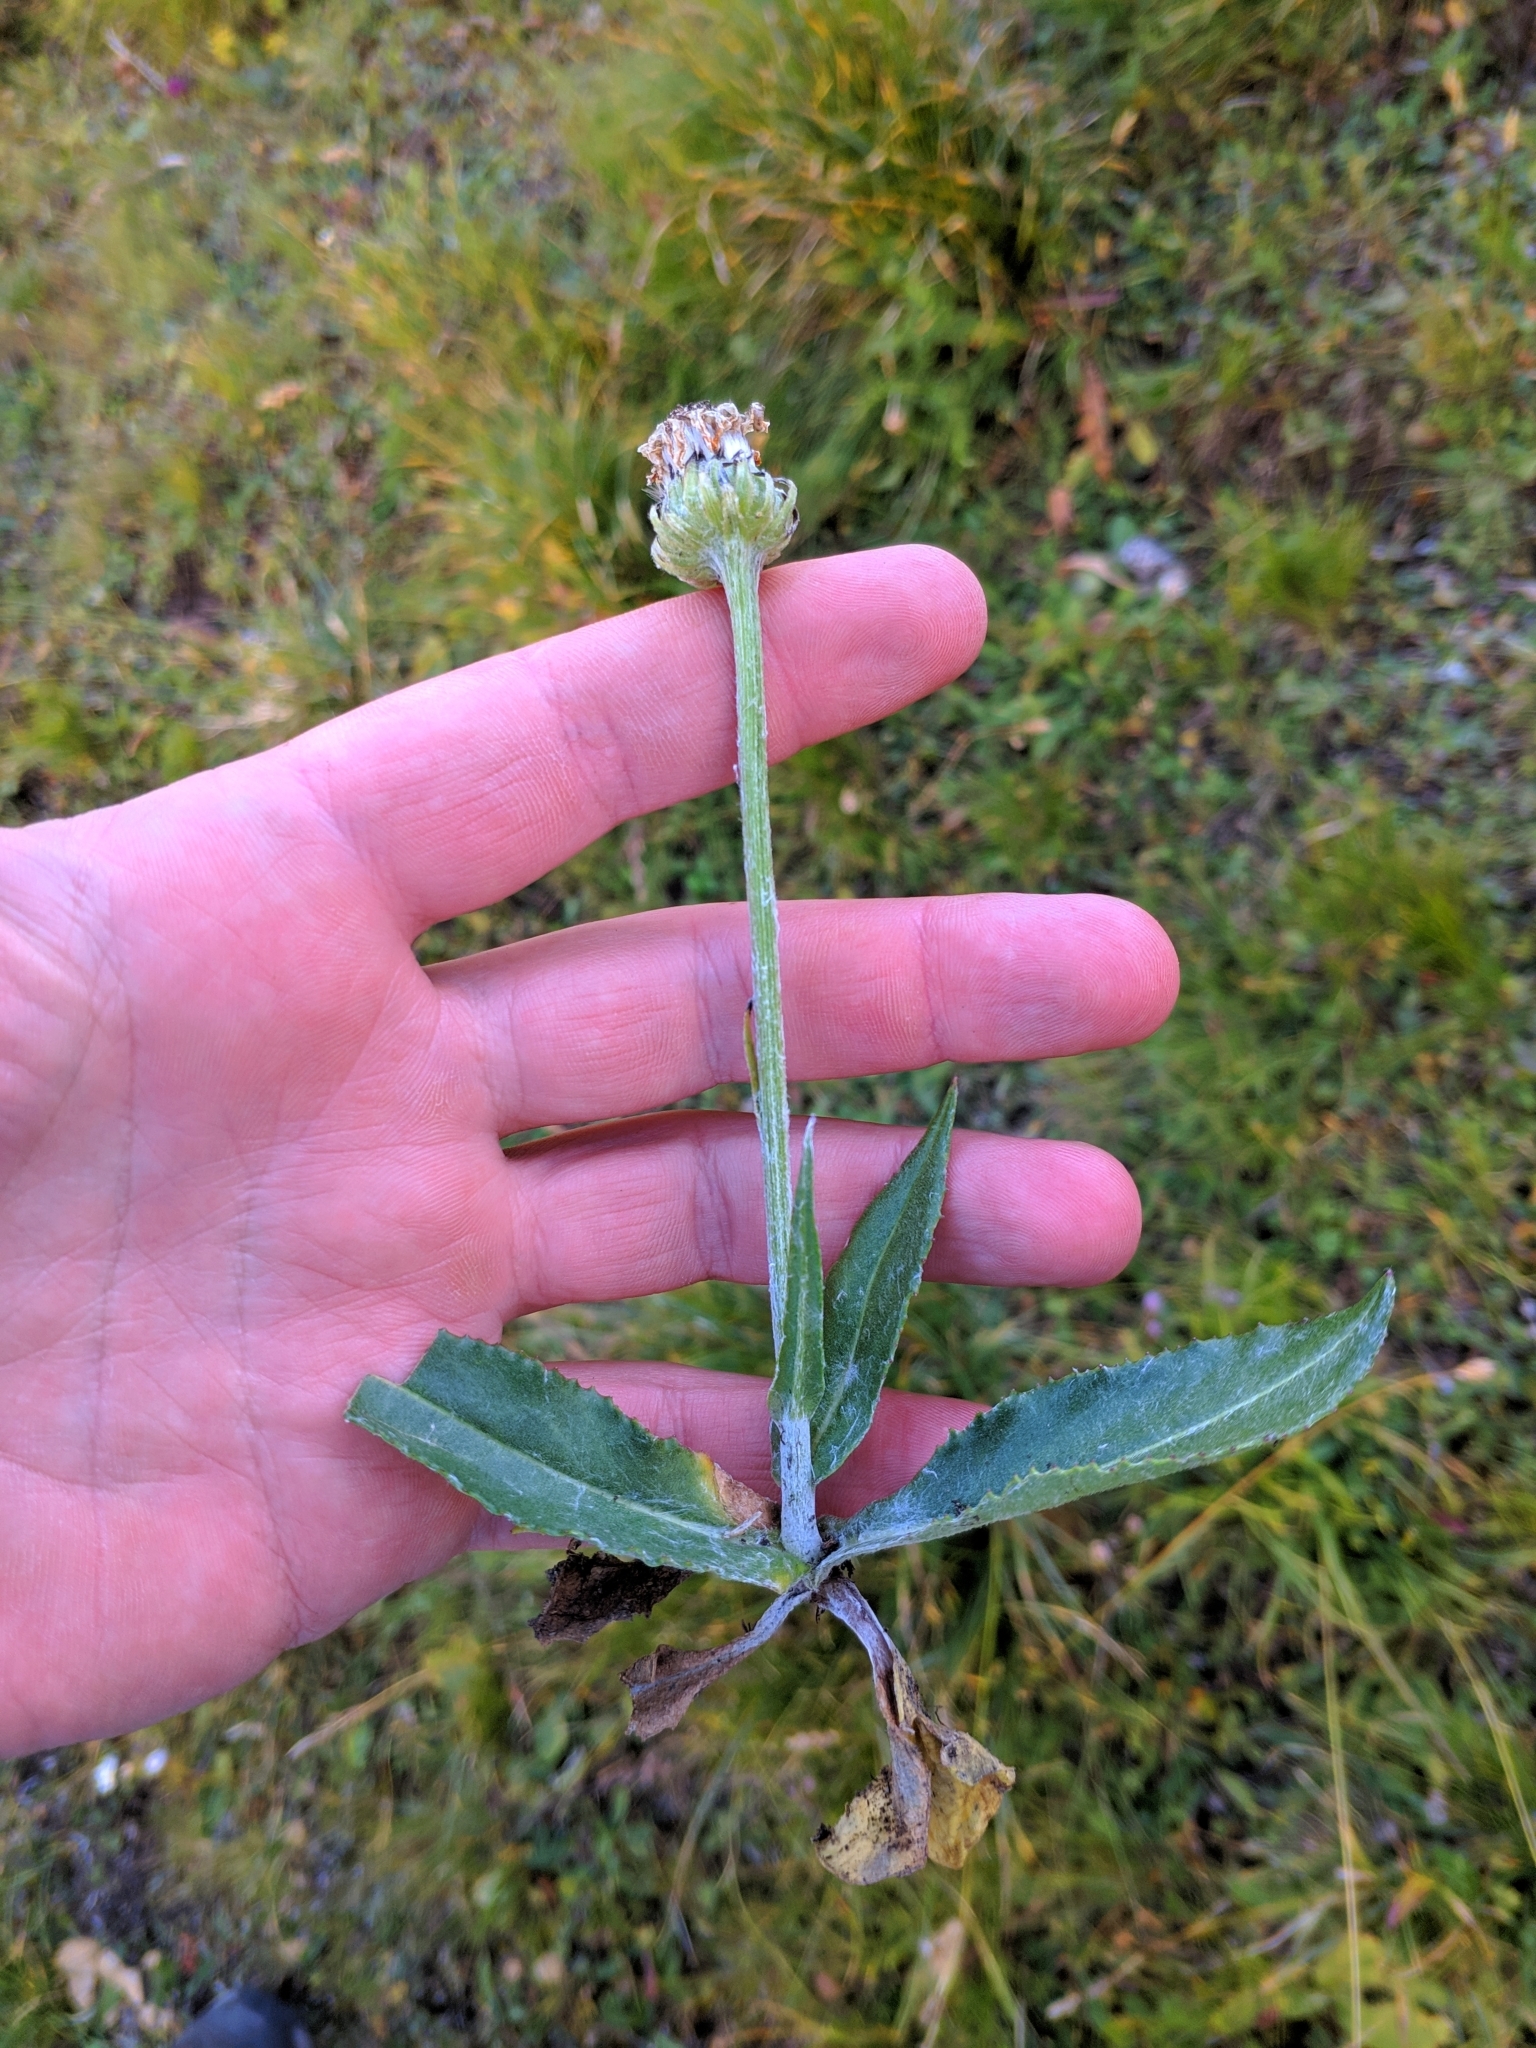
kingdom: Plantae
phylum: Tracheophyta
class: Magnoliopsida
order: Asterales
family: Asteraceae
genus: Senecio
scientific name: Senecio doronicum
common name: Chamois ragwort
